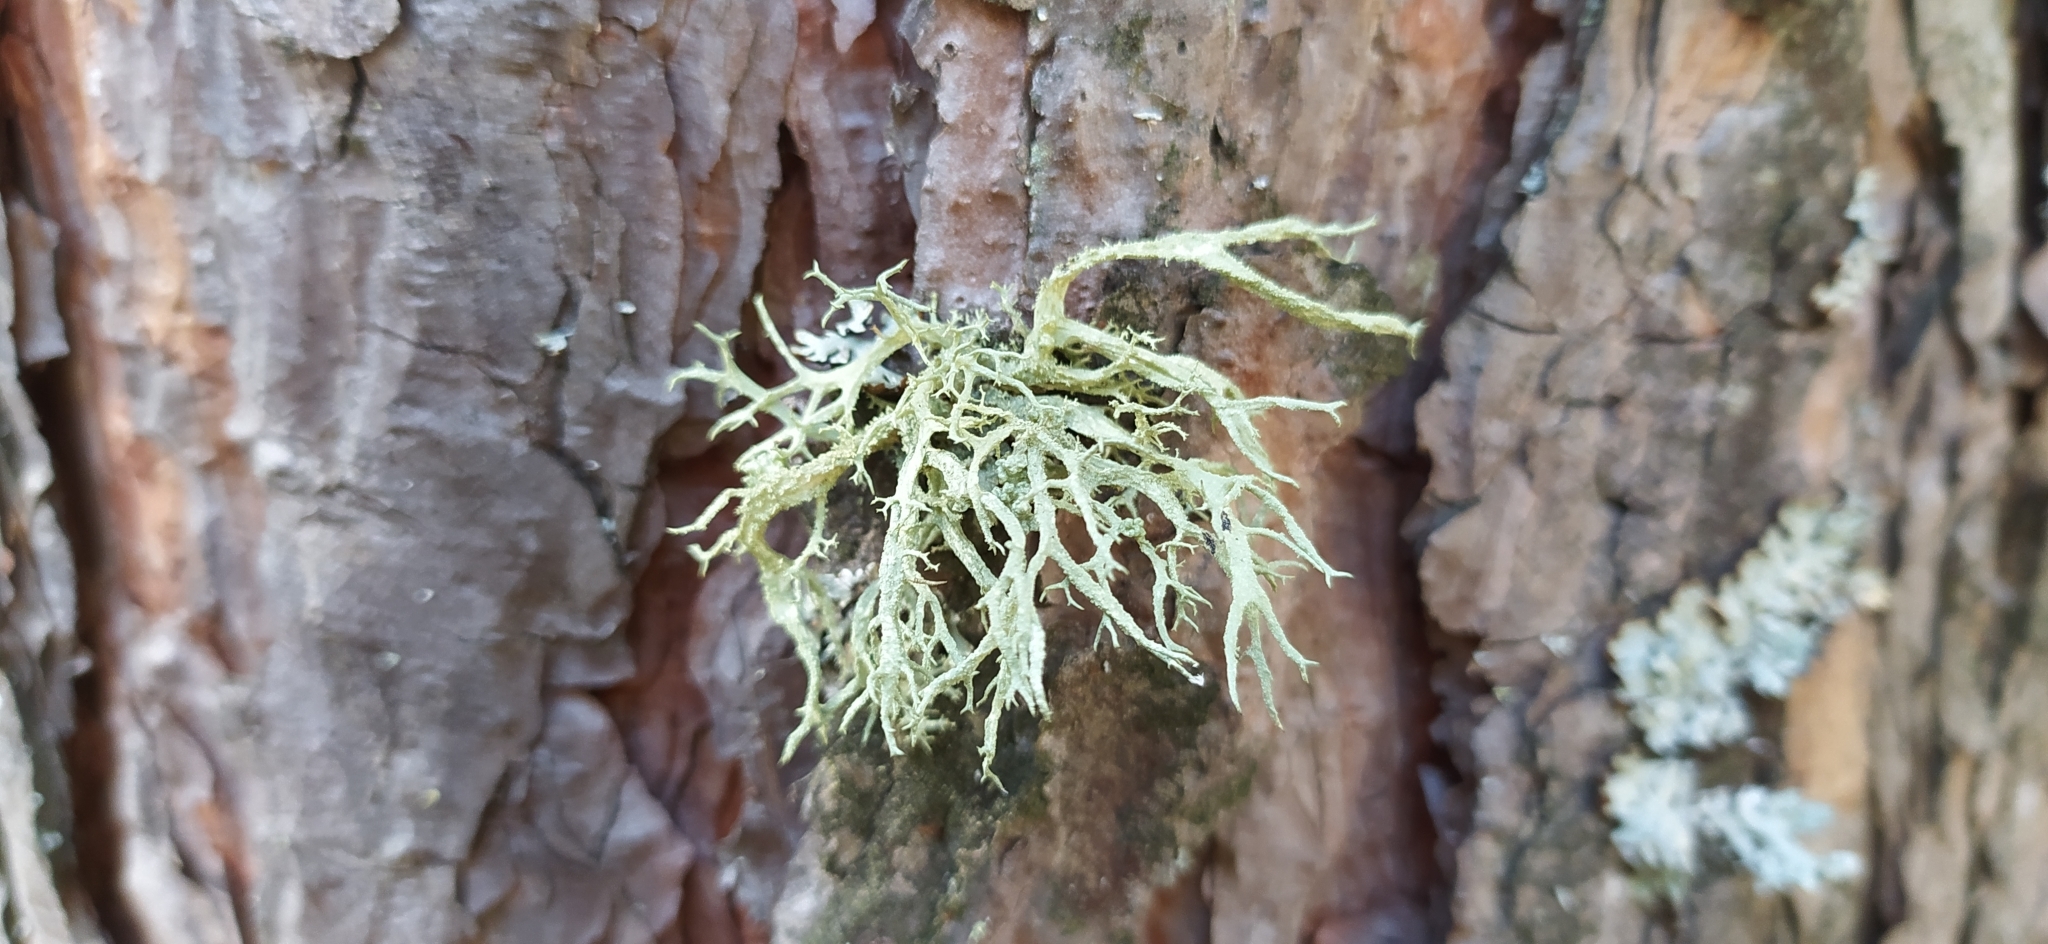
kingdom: Fungi
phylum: Ascomycota
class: Lecanoromycetes
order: Lecanorales
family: Parmeliaceae
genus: Evernia
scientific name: Evernia mesomorpha
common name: Boreal oak moss lichen
